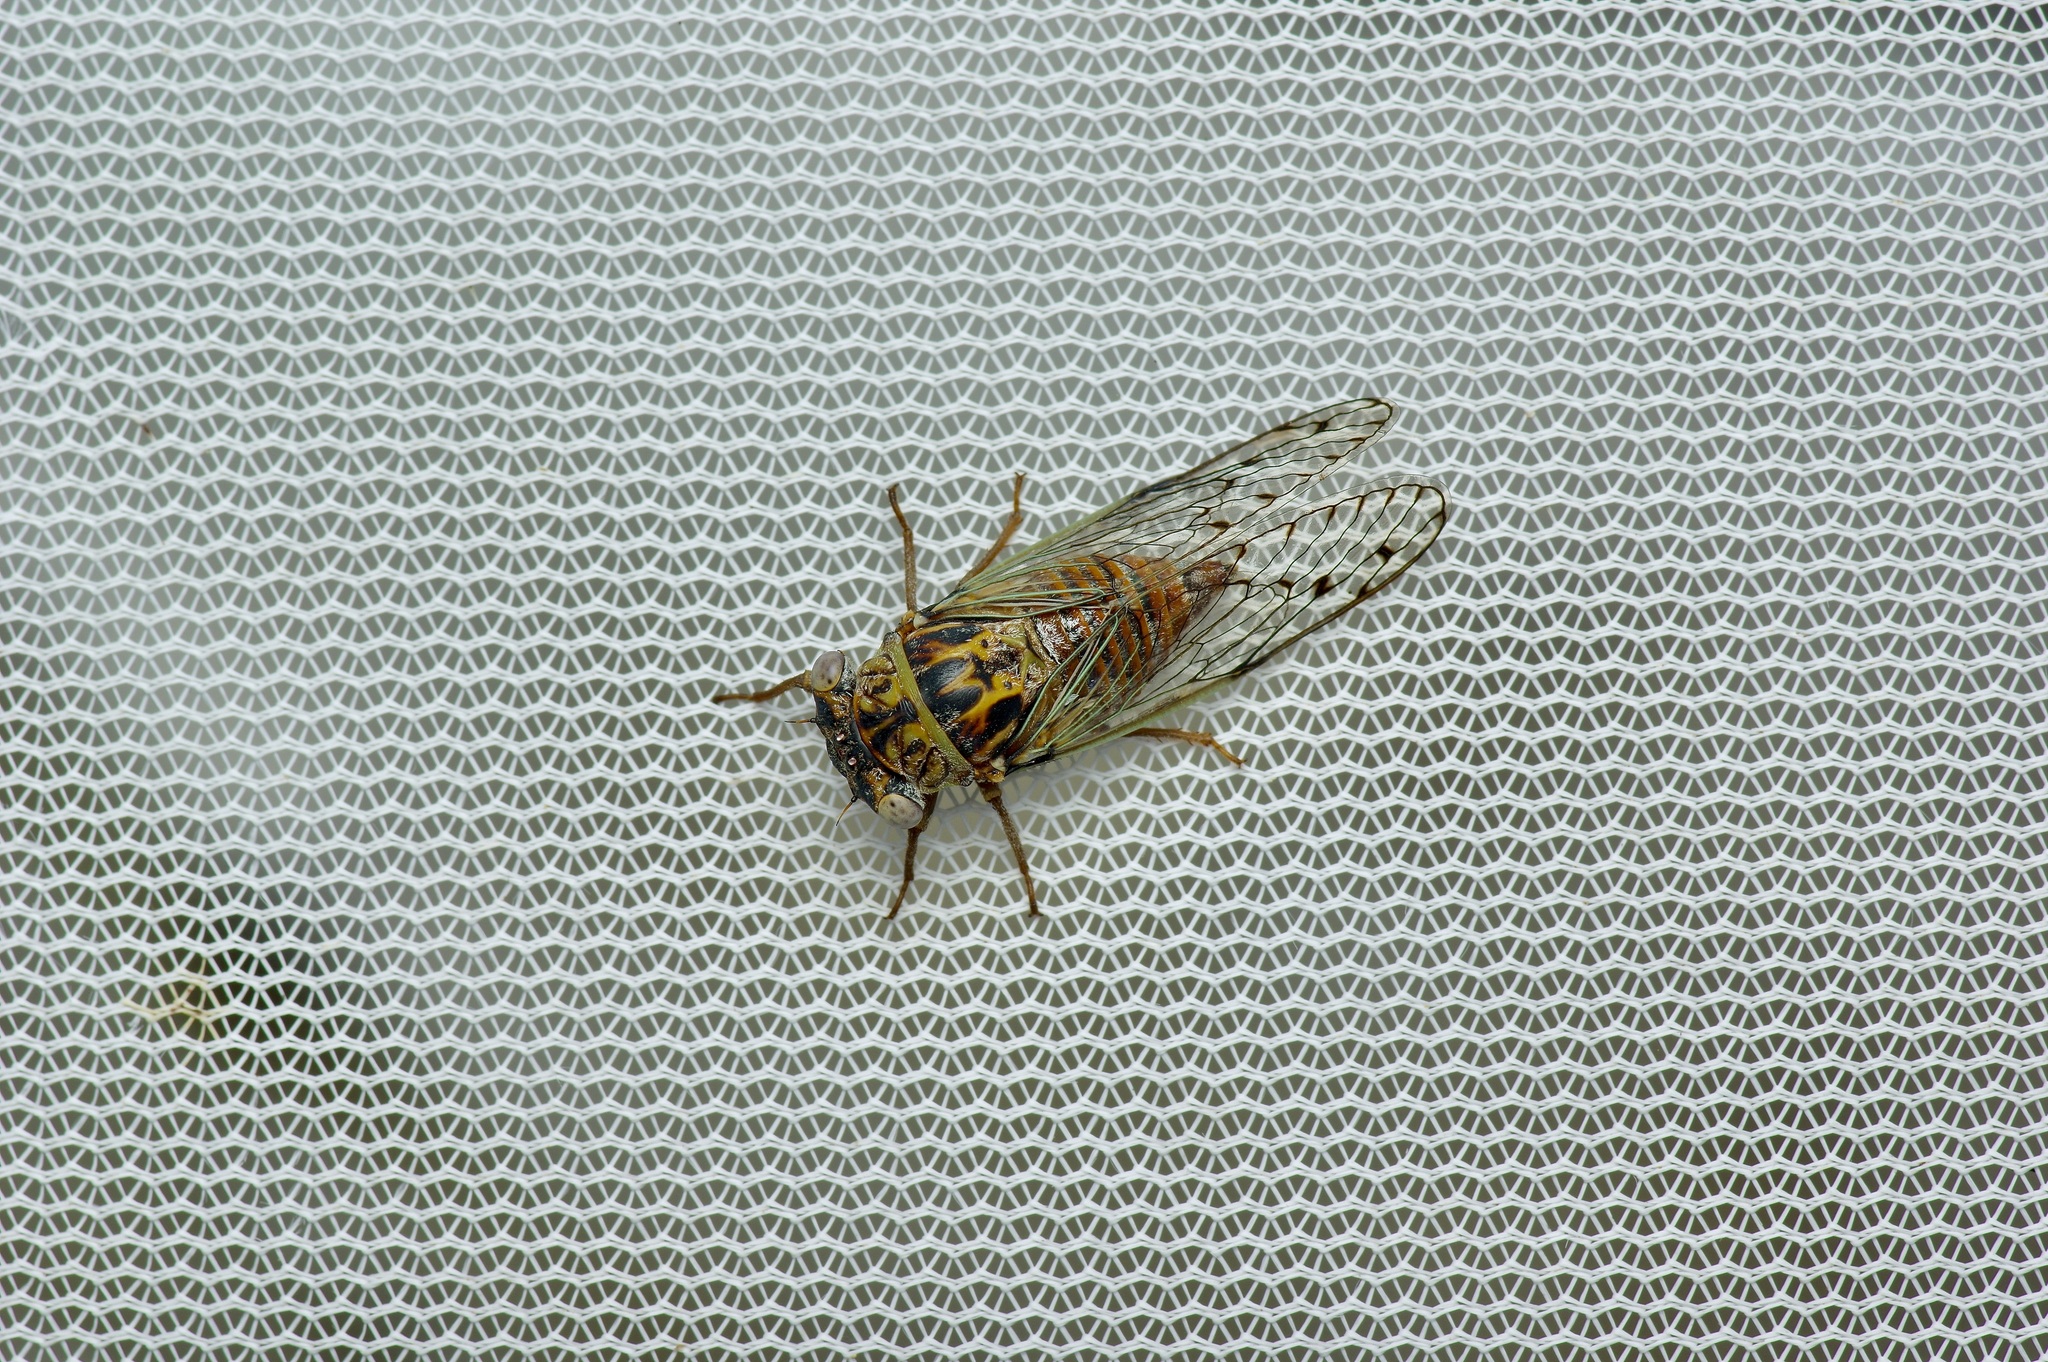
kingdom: Animalia
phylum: Arthropoda
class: Insecta
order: Hemiptera
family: Cicadidae
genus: Pacarina
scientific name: Pacarina puella
